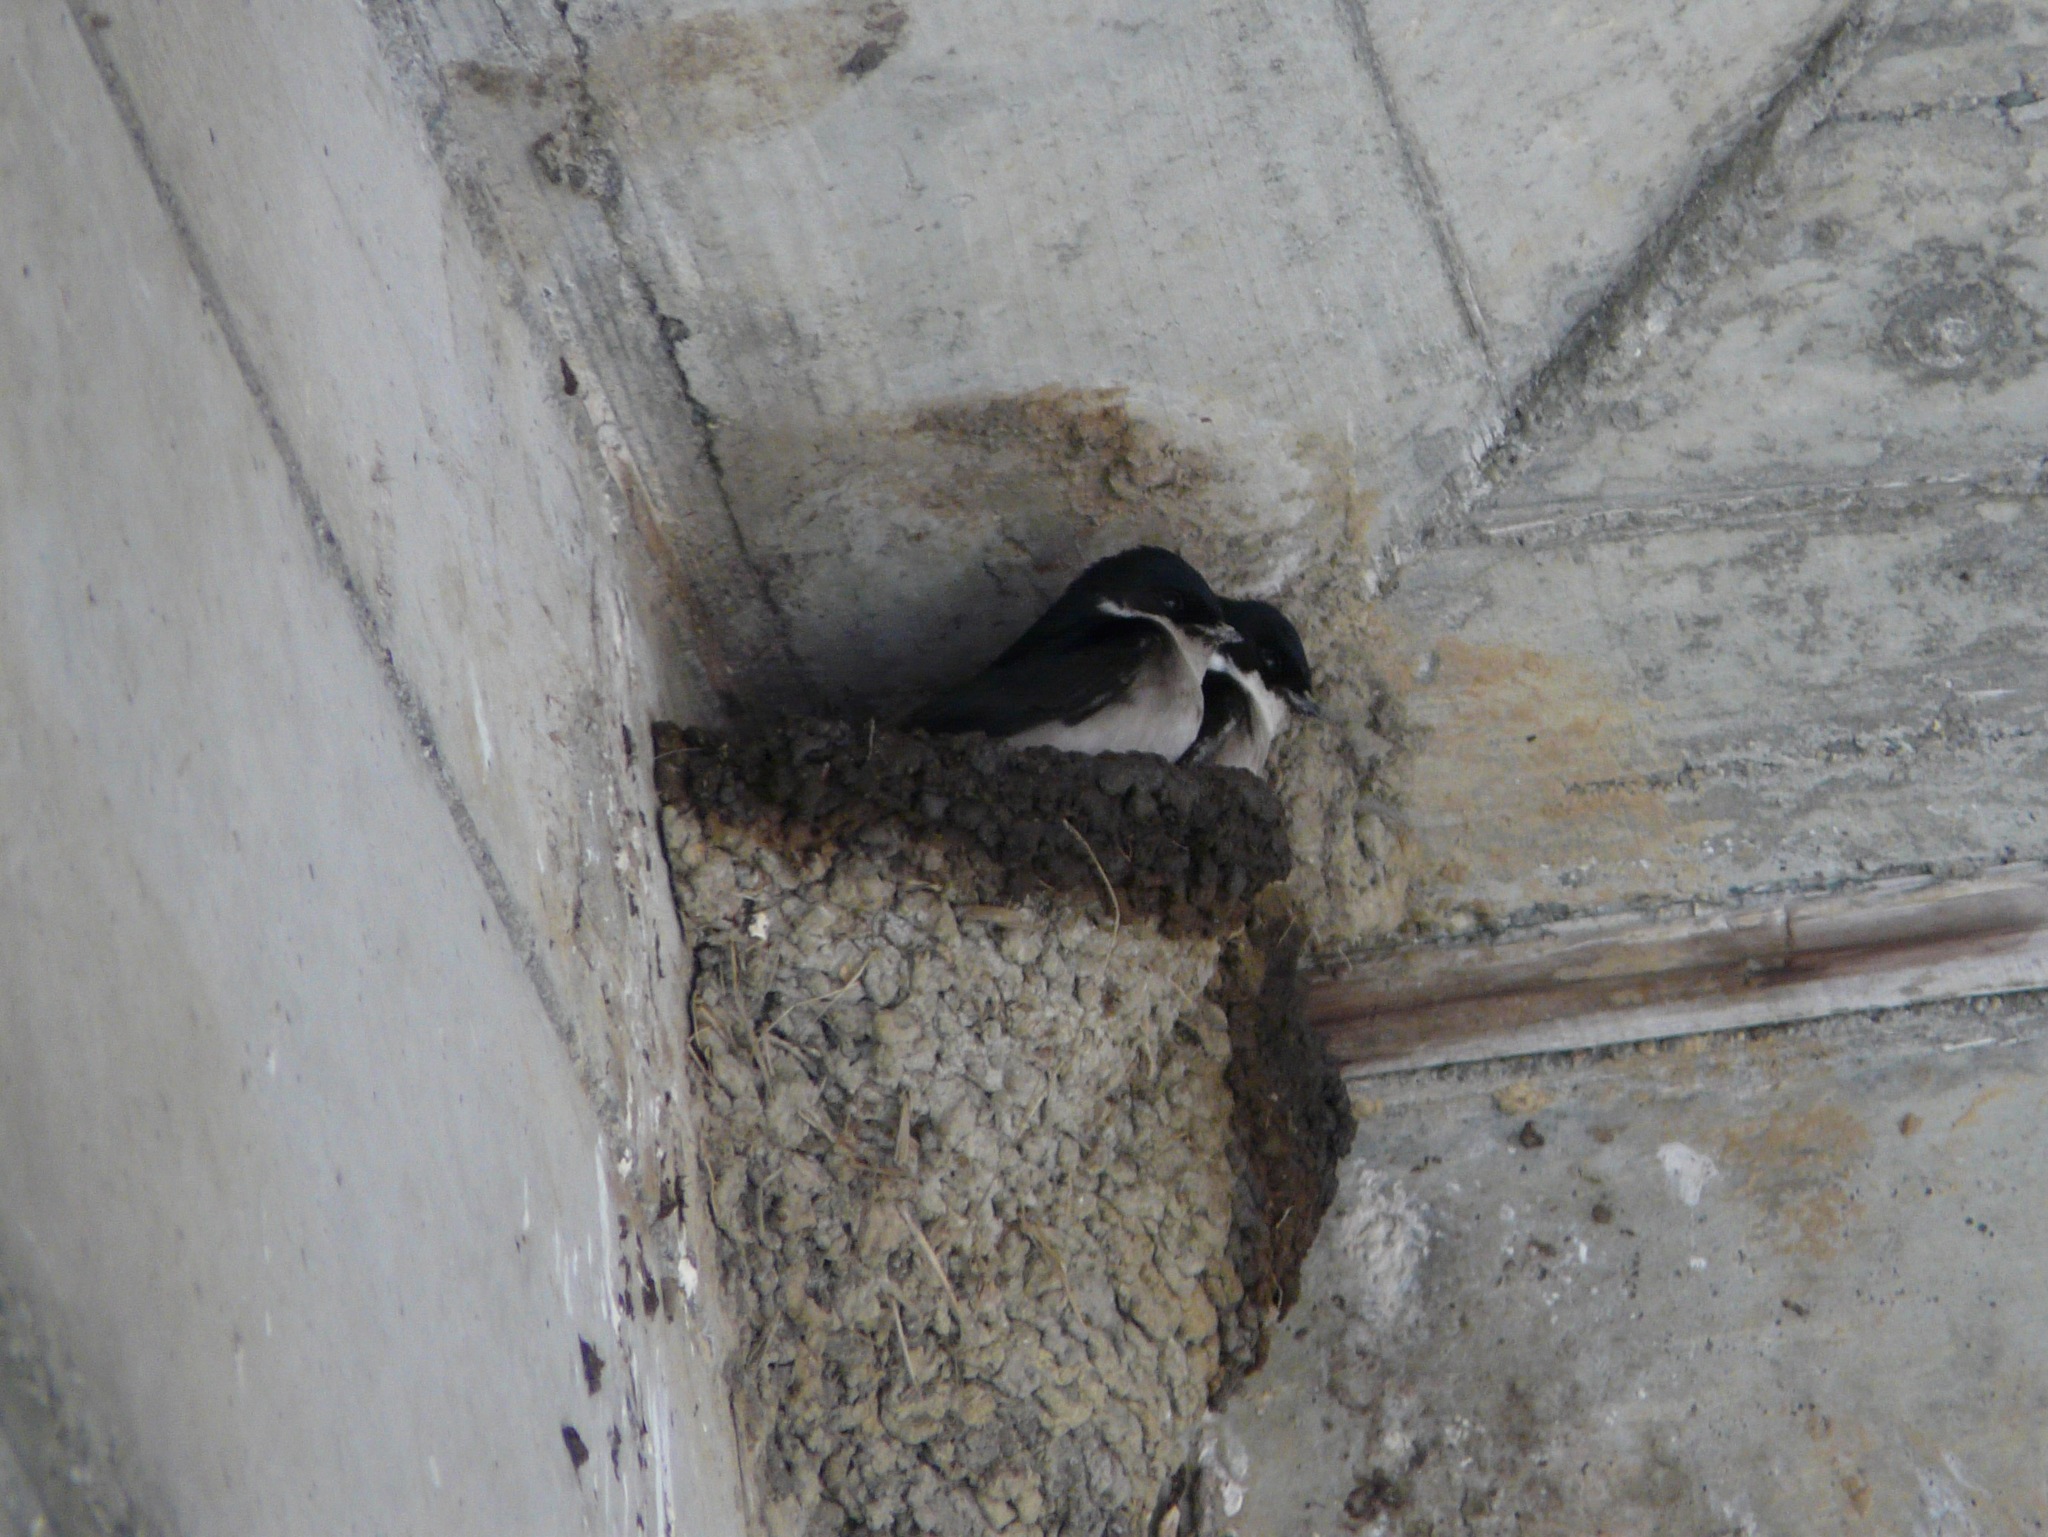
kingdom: Animalia
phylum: Chordata
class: Aves
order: Passeriformes
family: Hirundinidae
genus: Delichon
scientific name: Delichon dasypus
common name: Asian house martin
